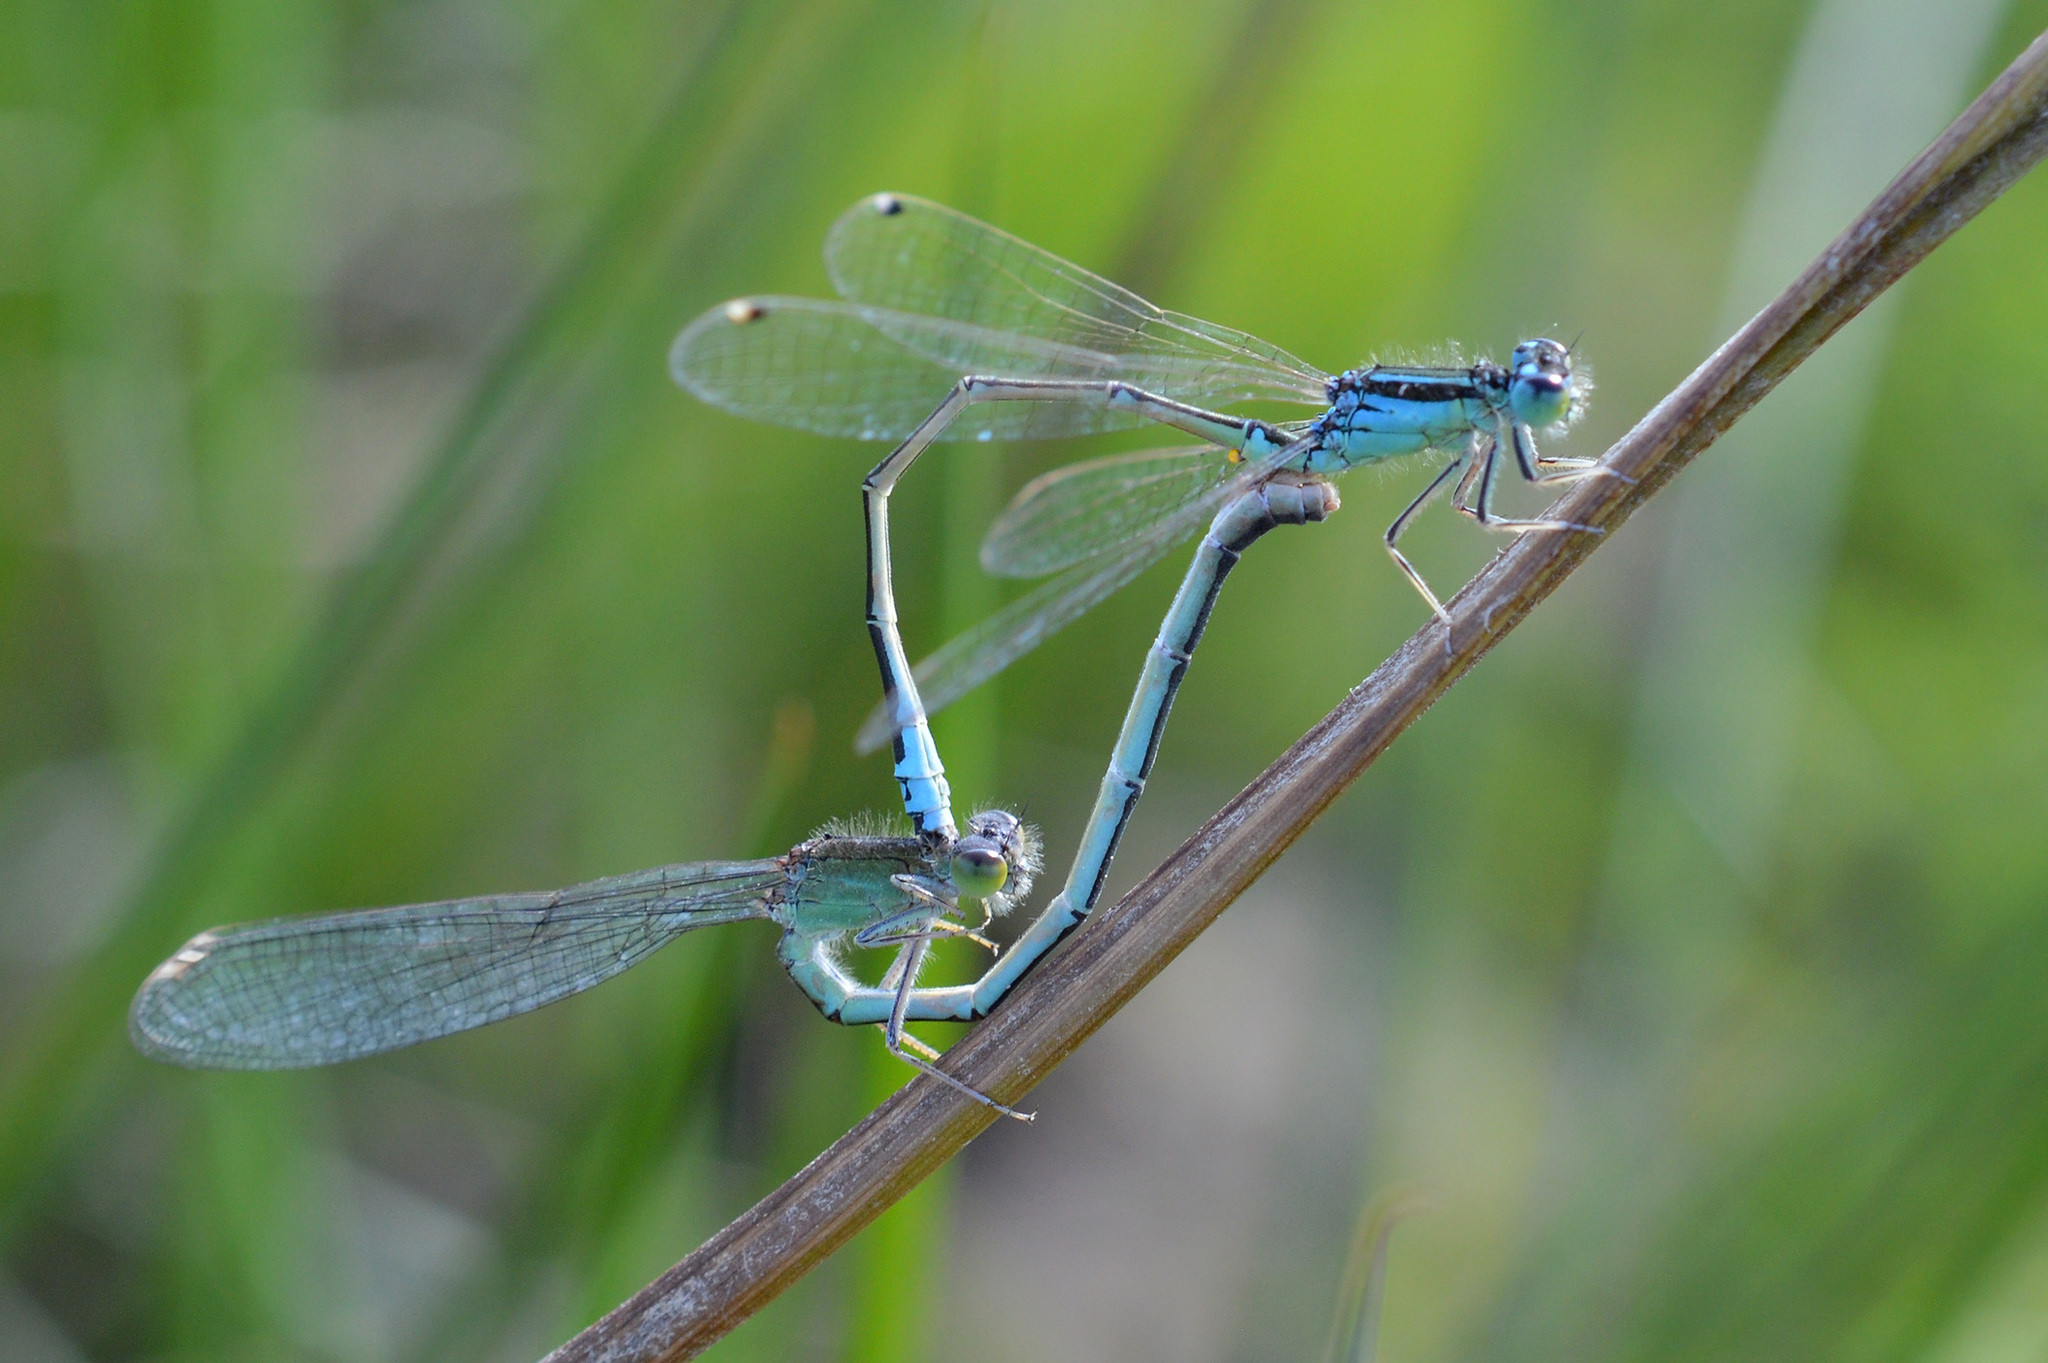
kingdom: Animalia
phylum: Arthropoda
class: Insecta
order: Odonata
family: Coenagrionidae
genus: Ischnura
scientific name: Ischnura pumilio
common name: Scarce blue-tailed damselfly
